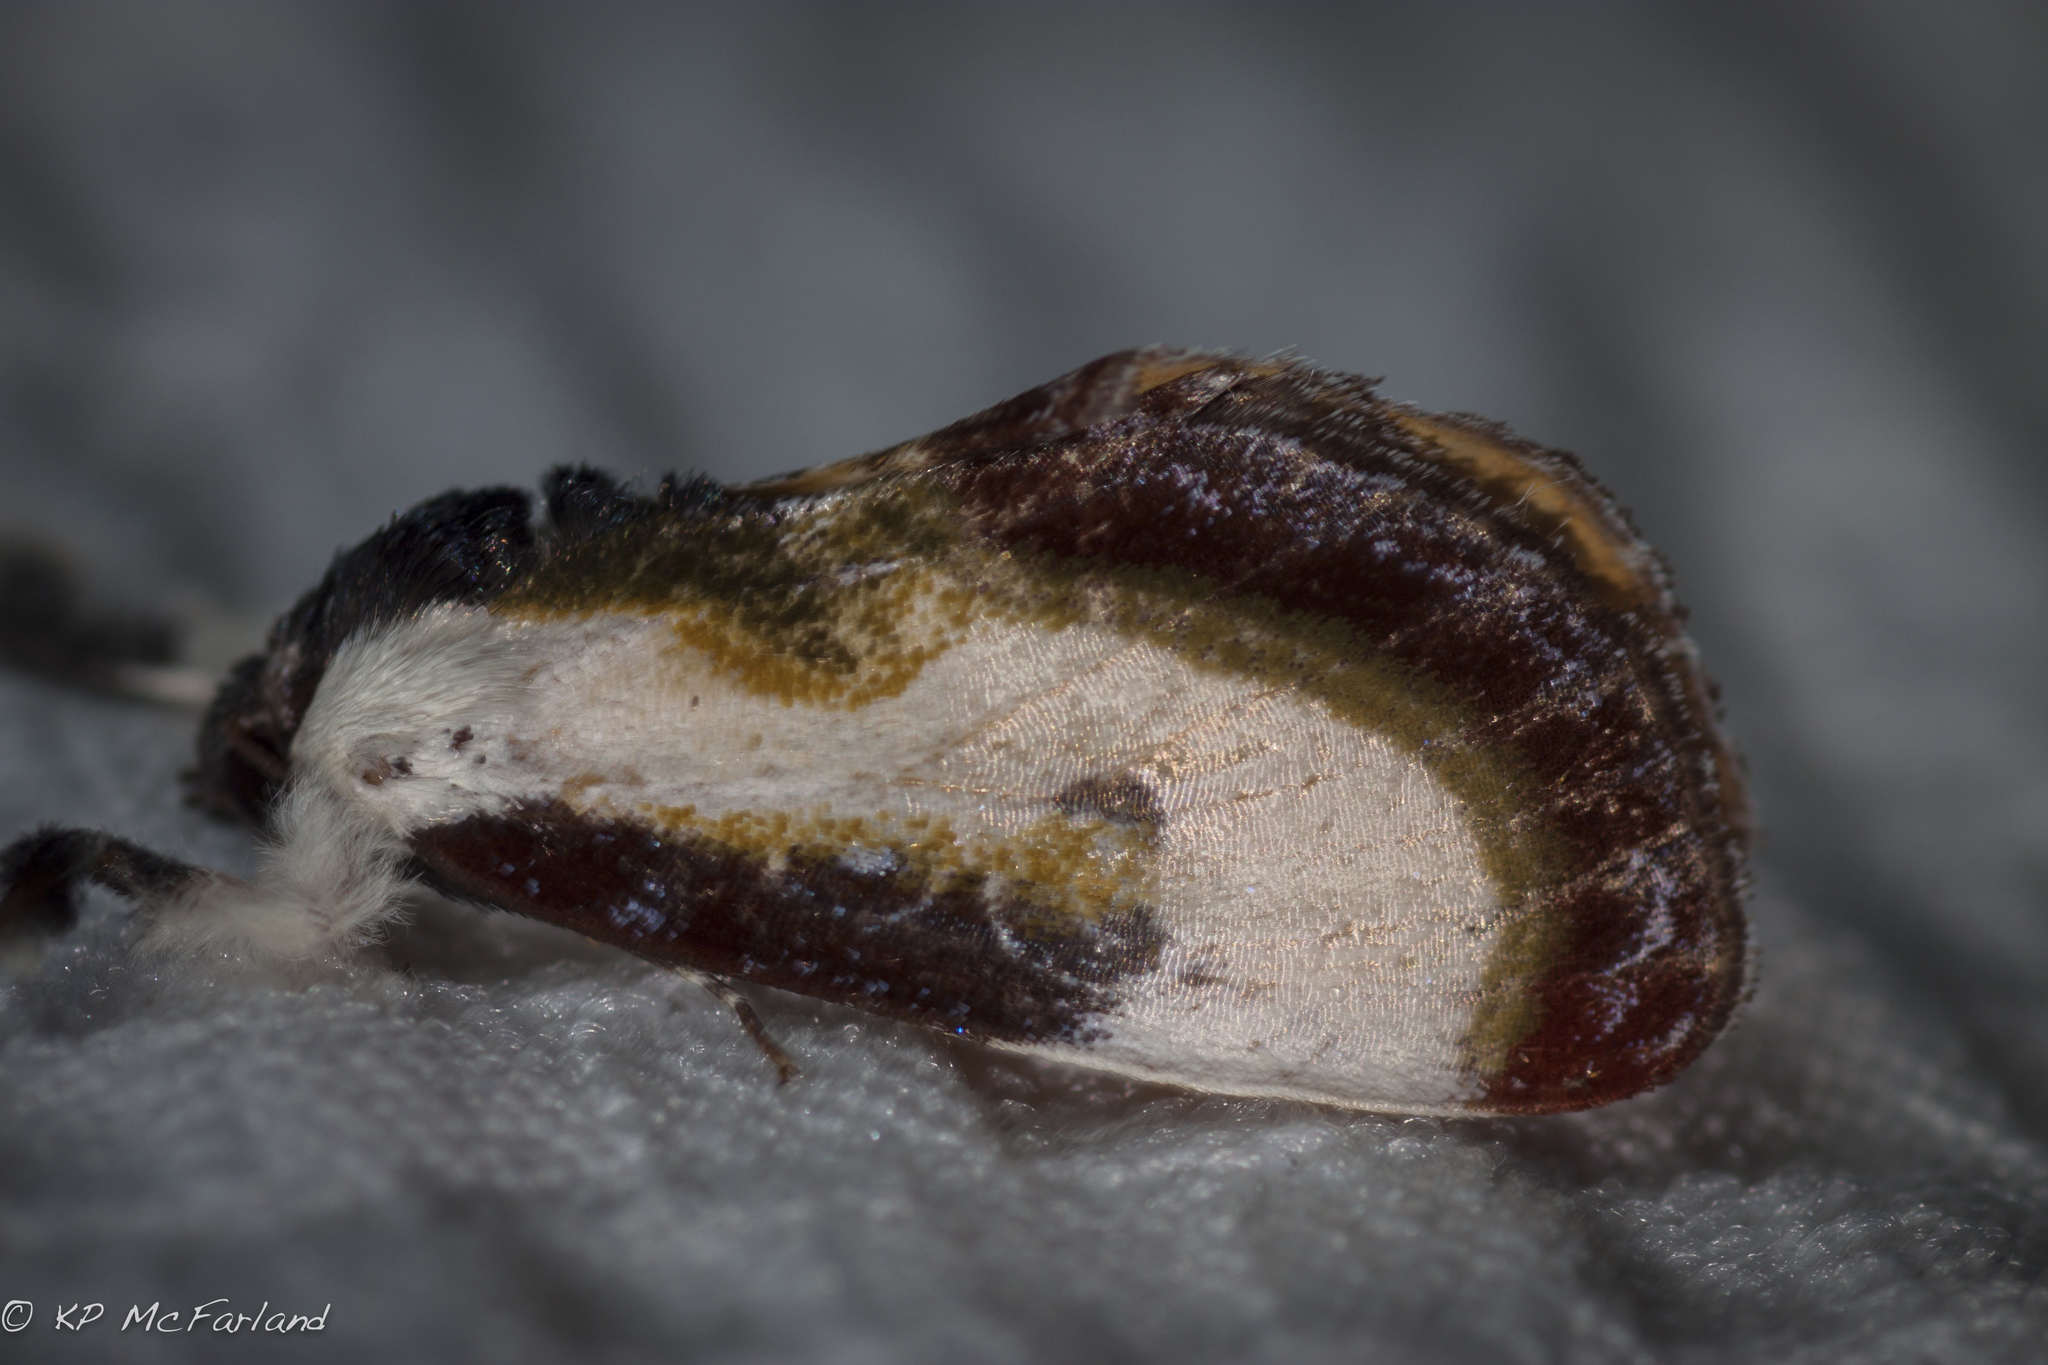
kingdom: Animalia
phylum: Arthropoda
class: Insecta
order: Lepidoptera
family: Noctuidae
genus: Eudryas
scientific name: Eudryas grata
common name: Beautiful wood-nymph
